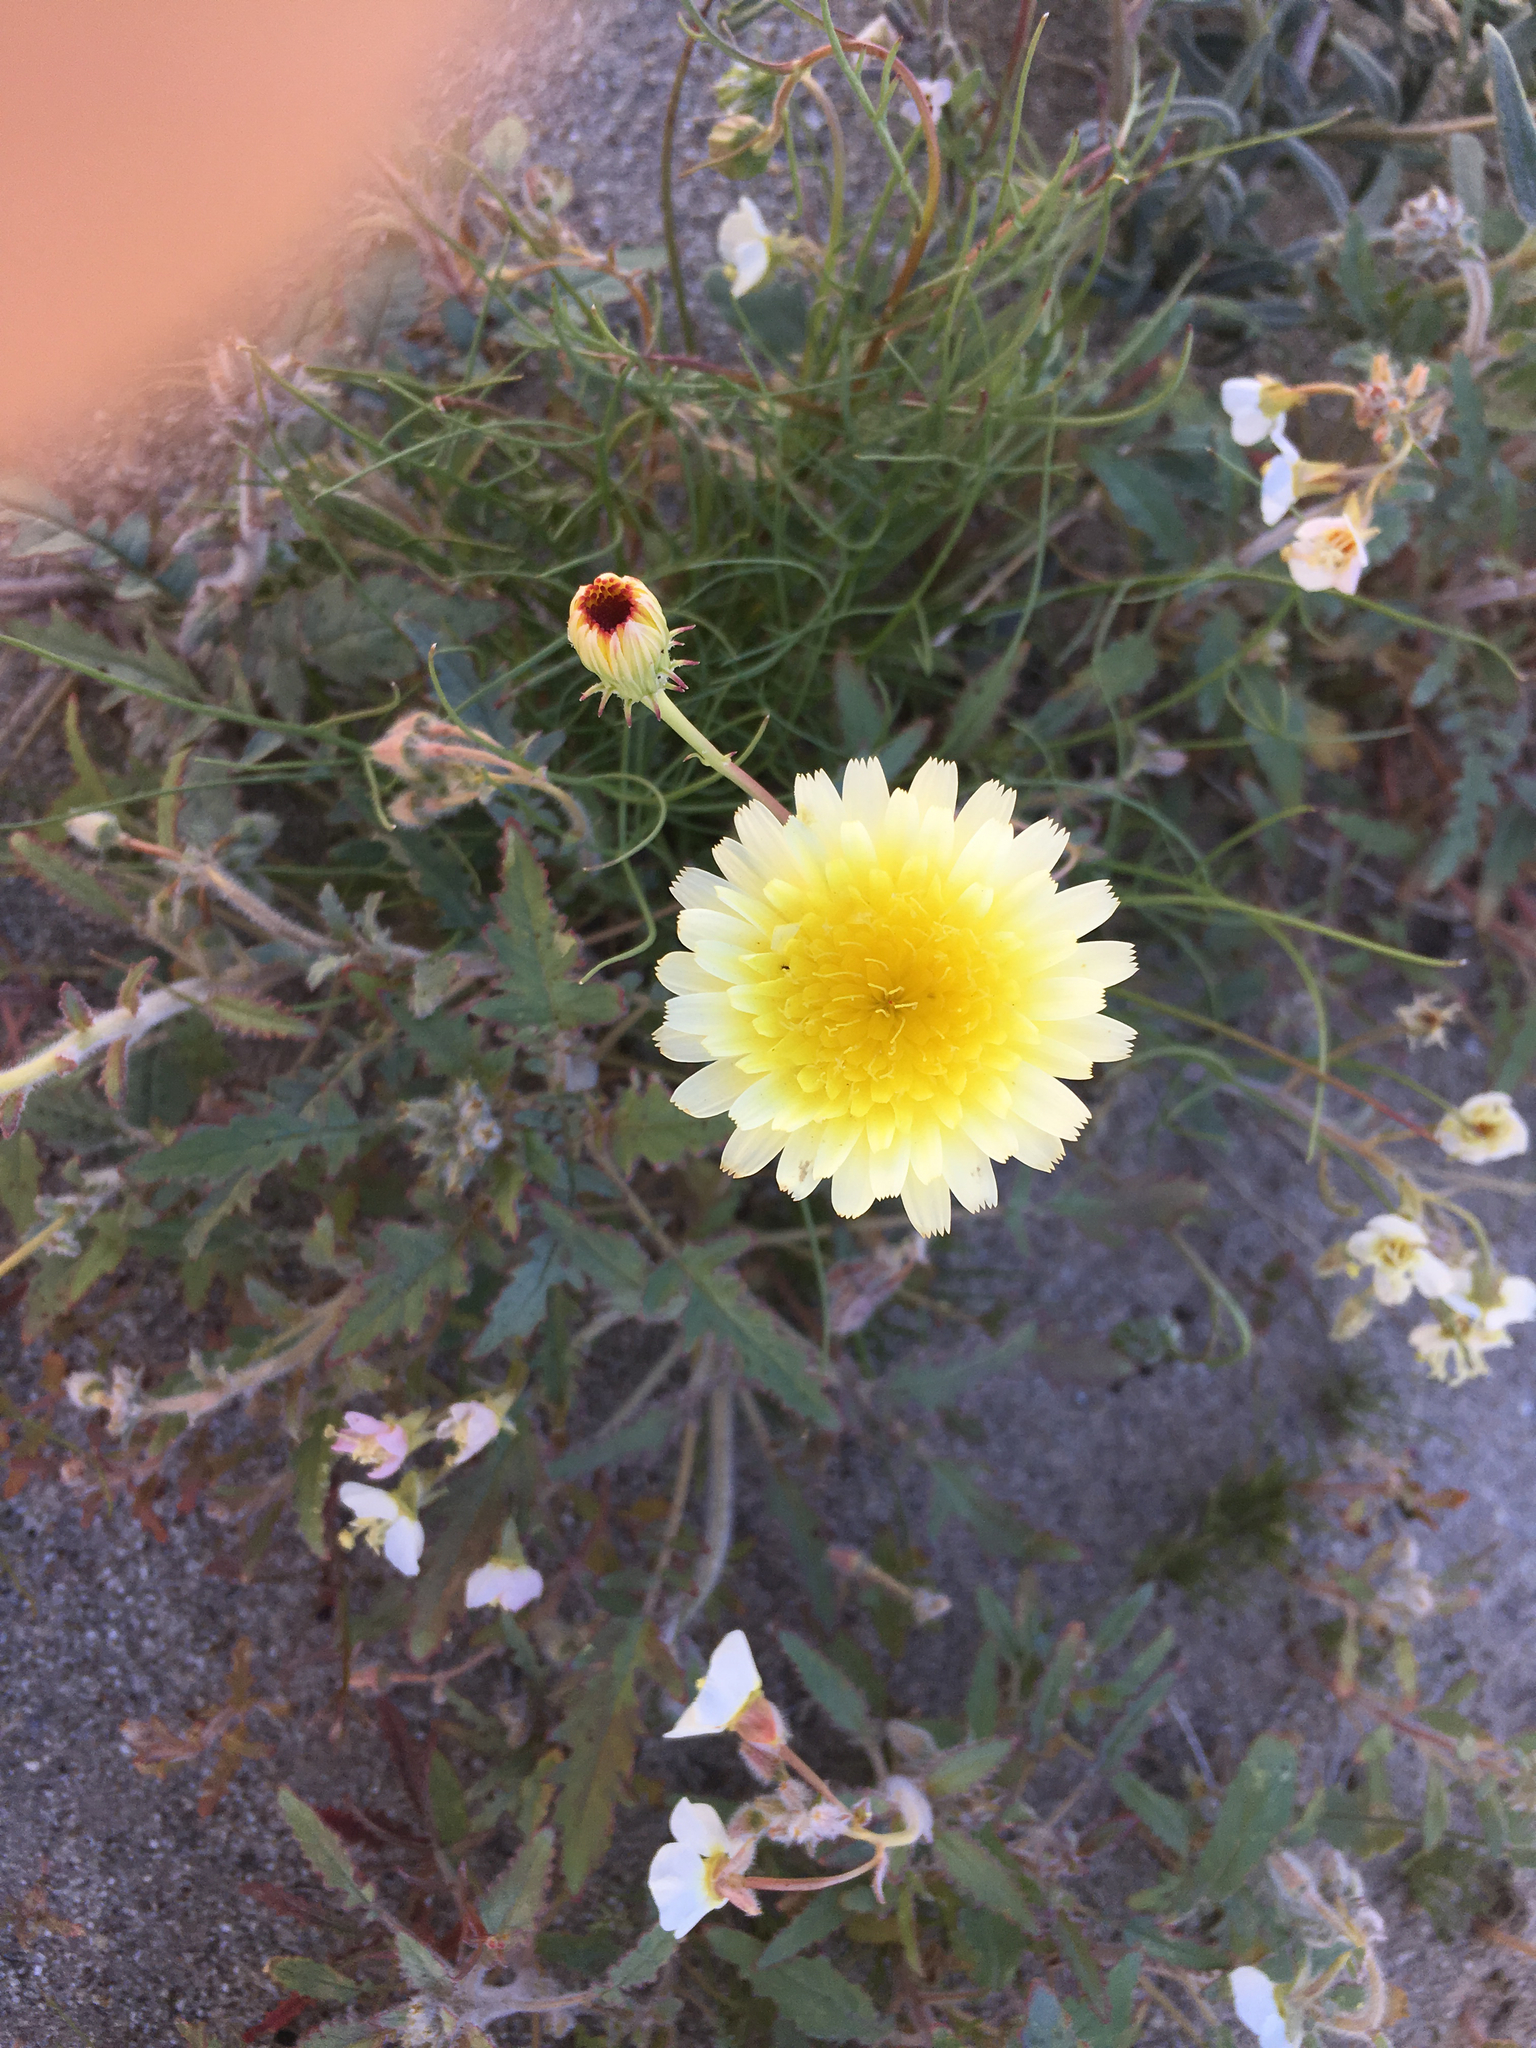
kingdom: Plantae
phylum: Tracheophyta
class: Magnoliopsida
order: Asterales
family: Asteraceae
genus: Malacothrix
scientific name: Malacothrix glabrata
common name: Smooth desert-dandelion
